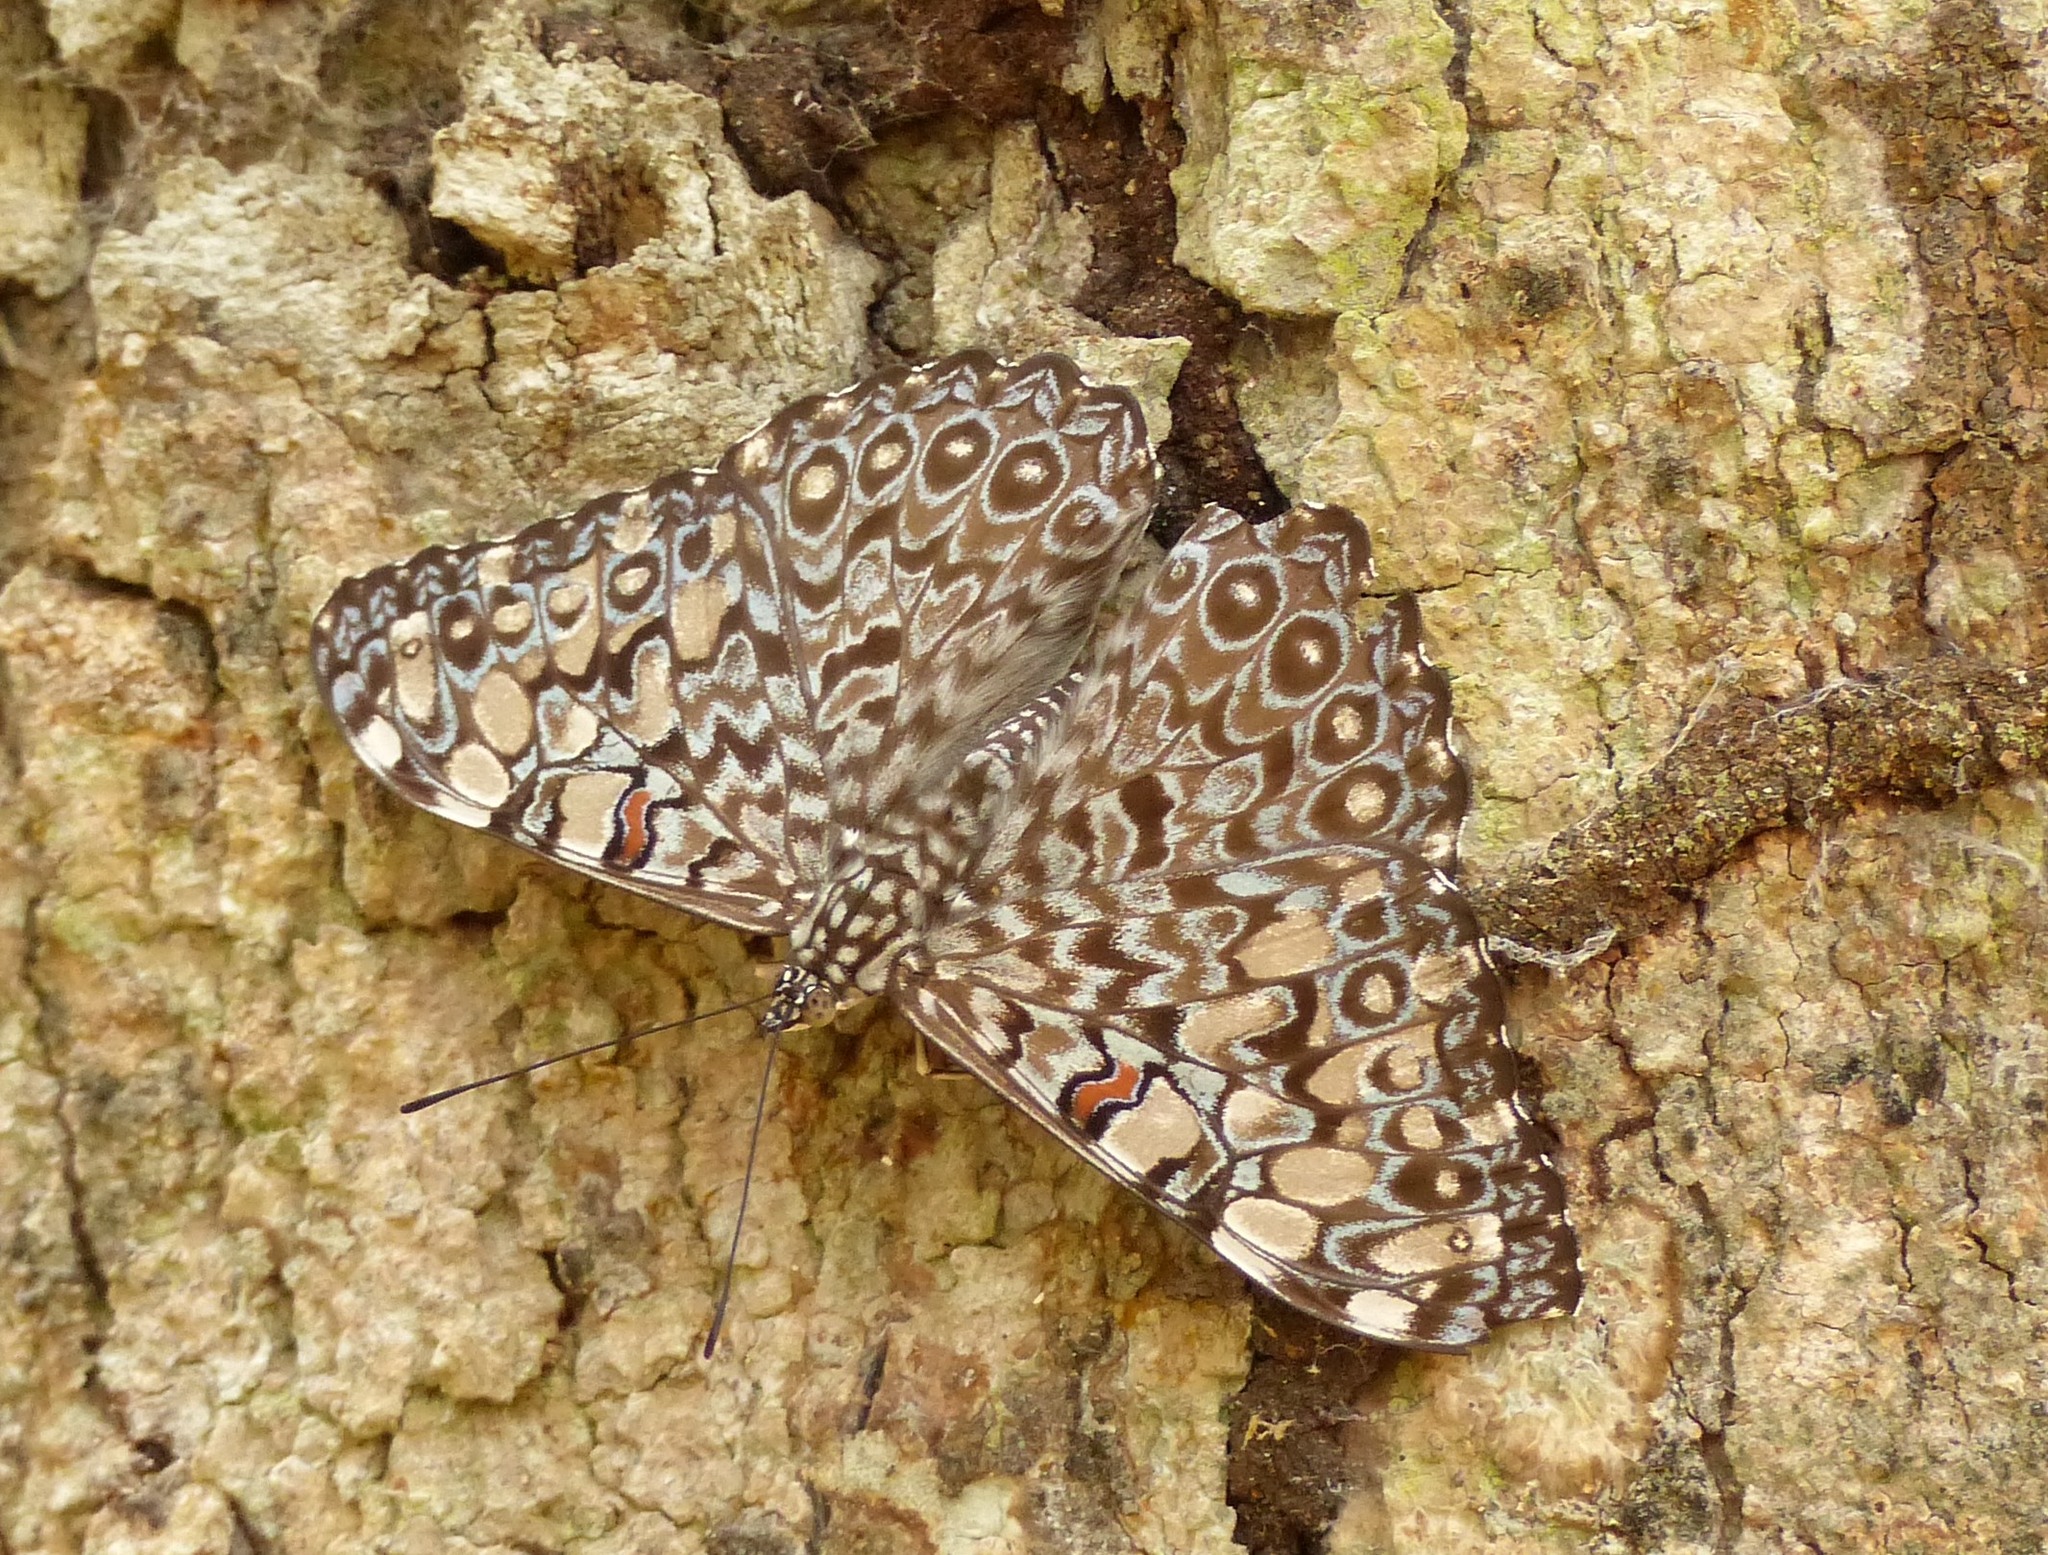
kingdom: Animalia
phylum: Arthropoda
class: Insecta
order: Lepidoptera
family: Nymphalidae
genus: Hamadryas
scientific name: Hamadryas feronia
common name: Variable cracker
